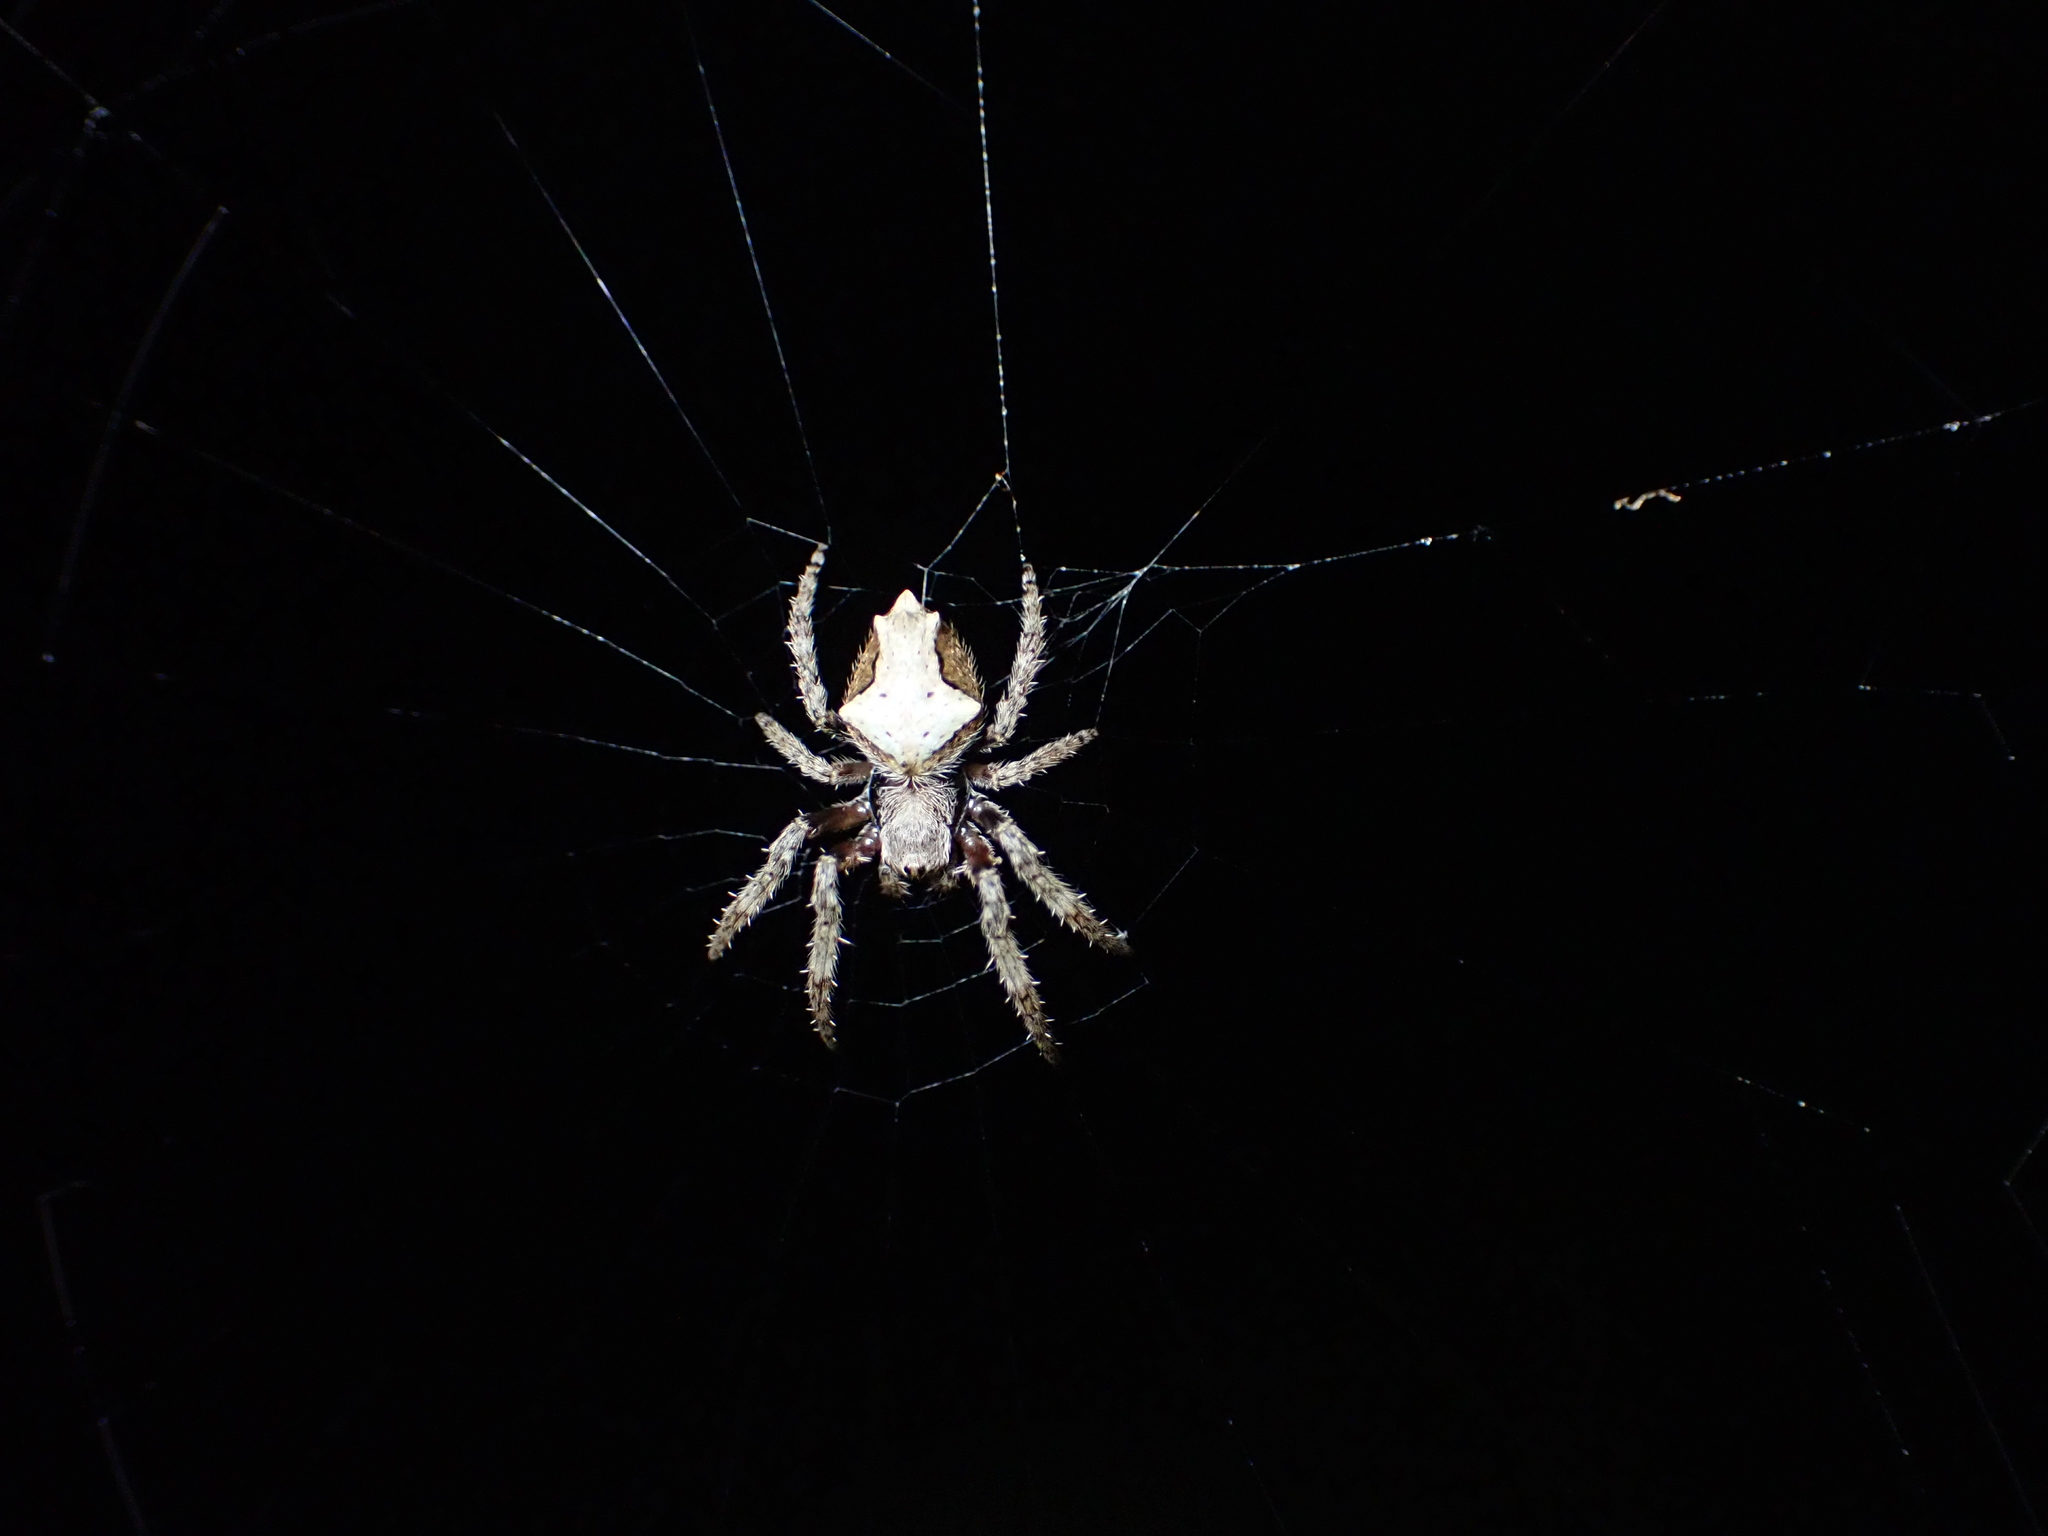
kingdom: Animalia
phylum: Arthropoda
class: Arachnida
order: Araneae
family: Araneidae
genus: Eriophora
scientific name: Eriophora pustulosa
